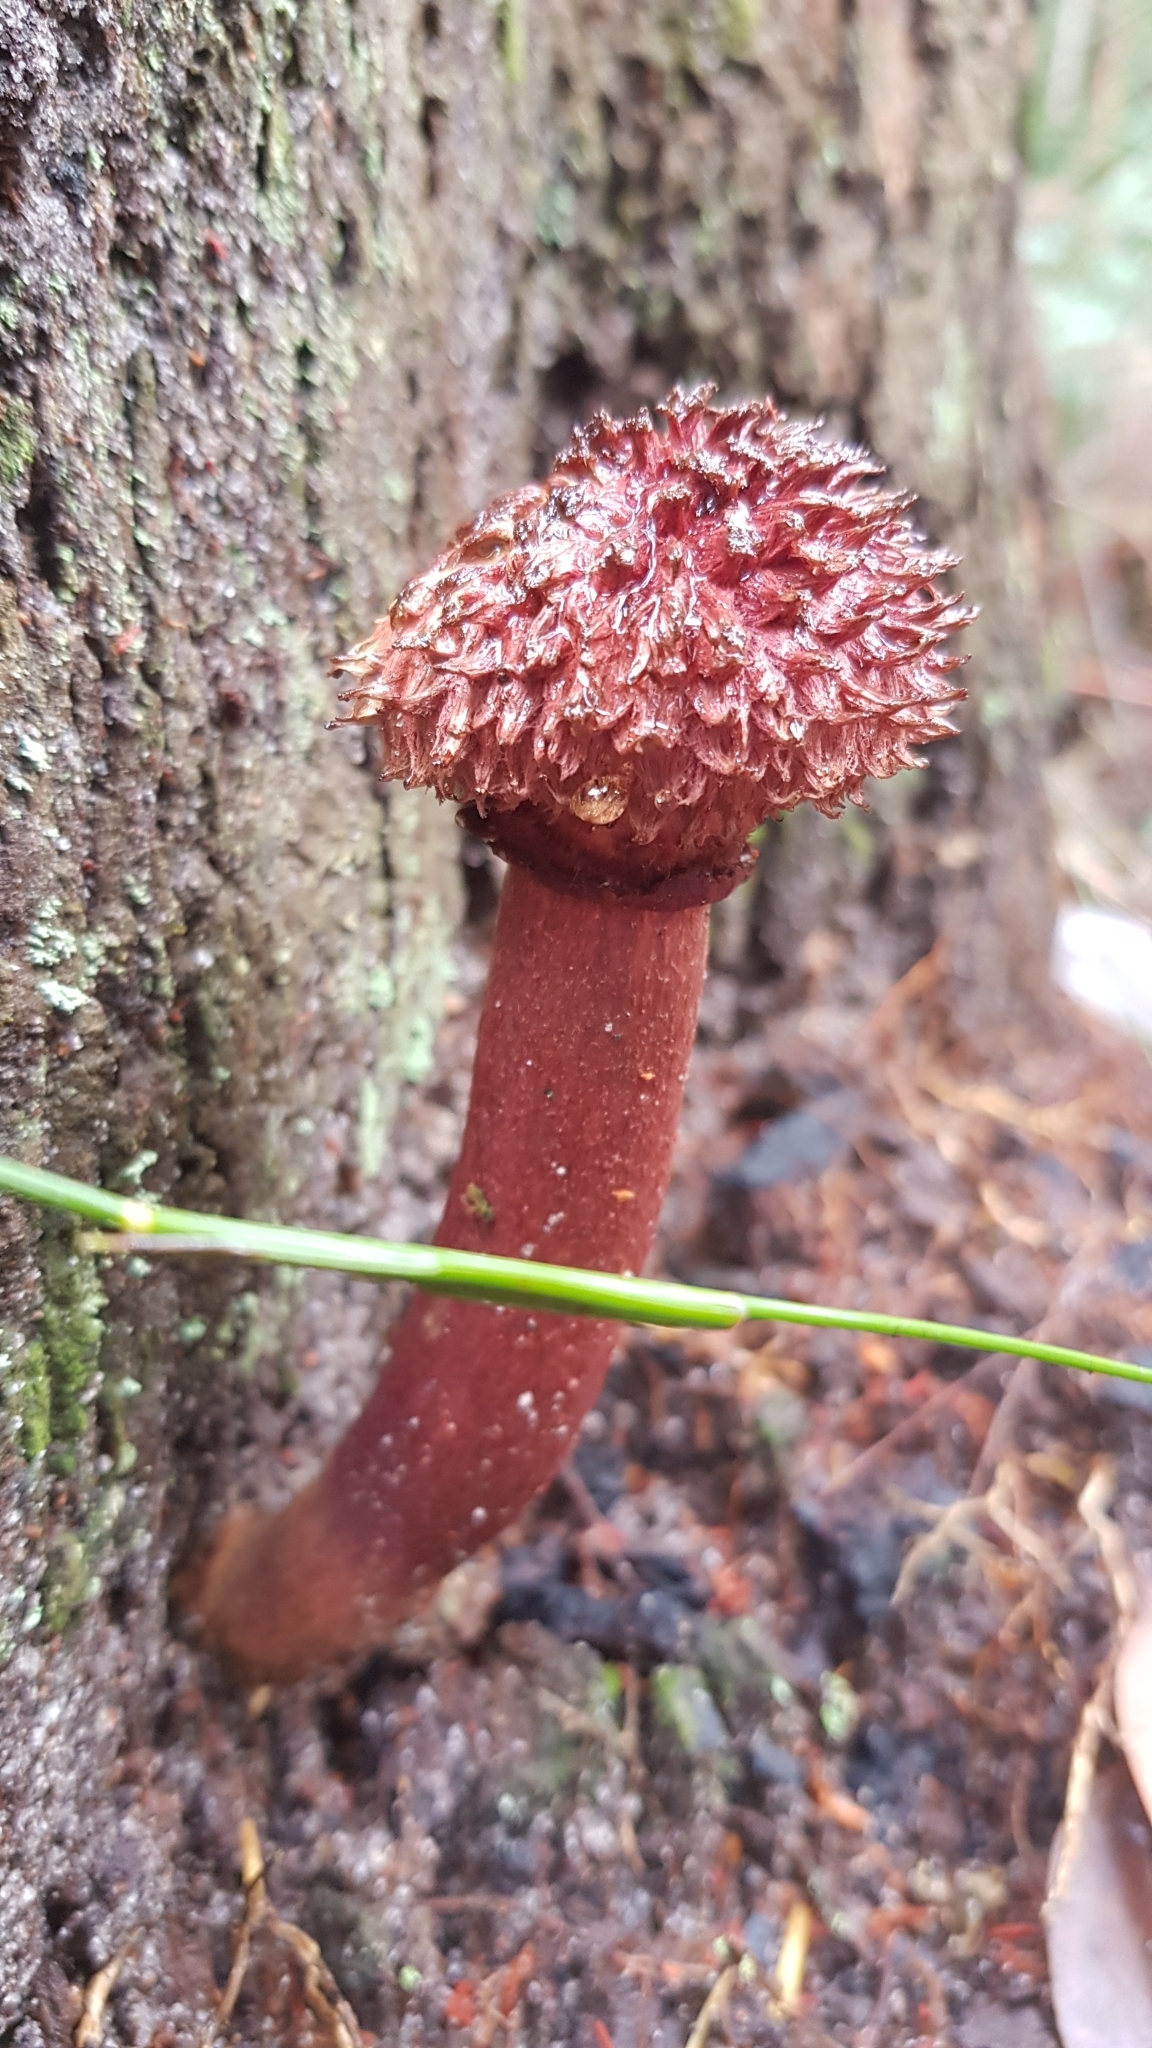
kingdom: Fungi
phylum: Basidiomycota
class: Agaricomycetes
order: Boletales
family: Boletaceae
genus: Boletellus
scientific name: Boletellus emodensis
